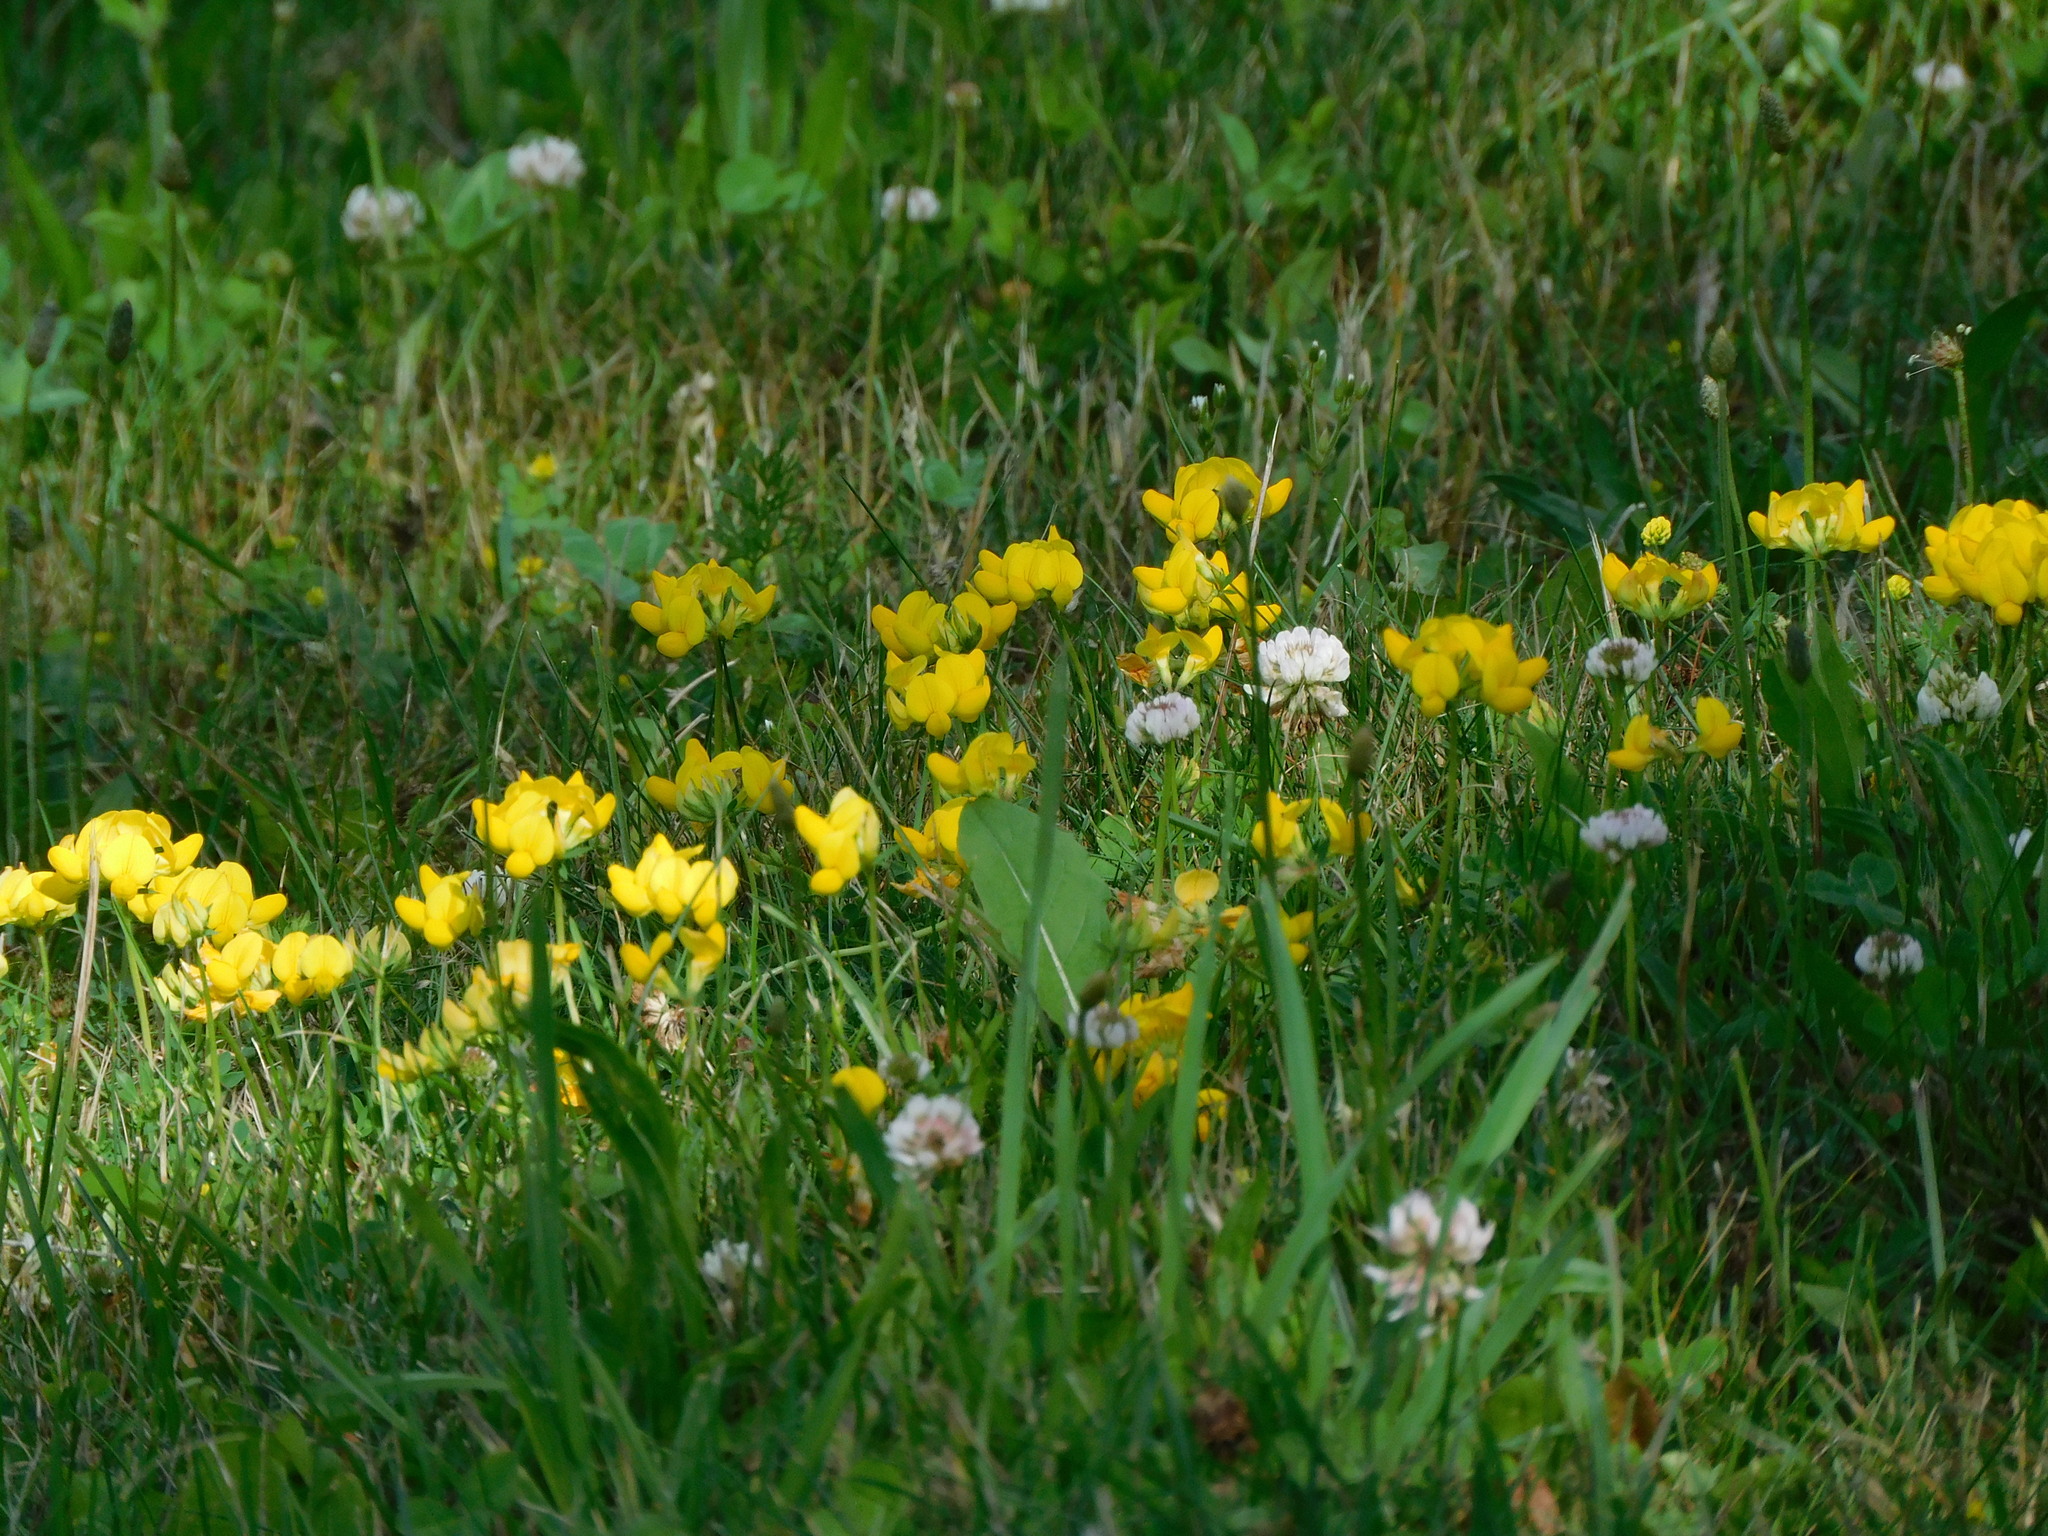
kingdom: Plantae
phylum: Tracheophyta
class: Magnoliopsida
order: Fabales
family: Fabaceae
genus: Lotus
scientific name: Lotus corniculatus
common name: Common bird's-foot-trefoil
